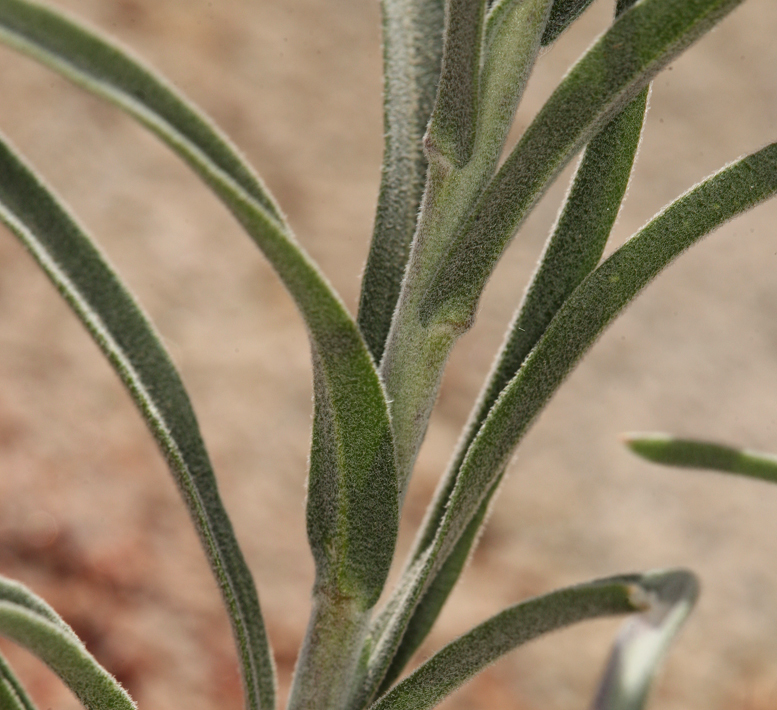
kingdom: Plantae
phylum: Tracheophyta
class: Magnoliopsida
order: Brassicales
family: Brassicaceae
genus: Boechera
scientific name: Boechera pulchra
